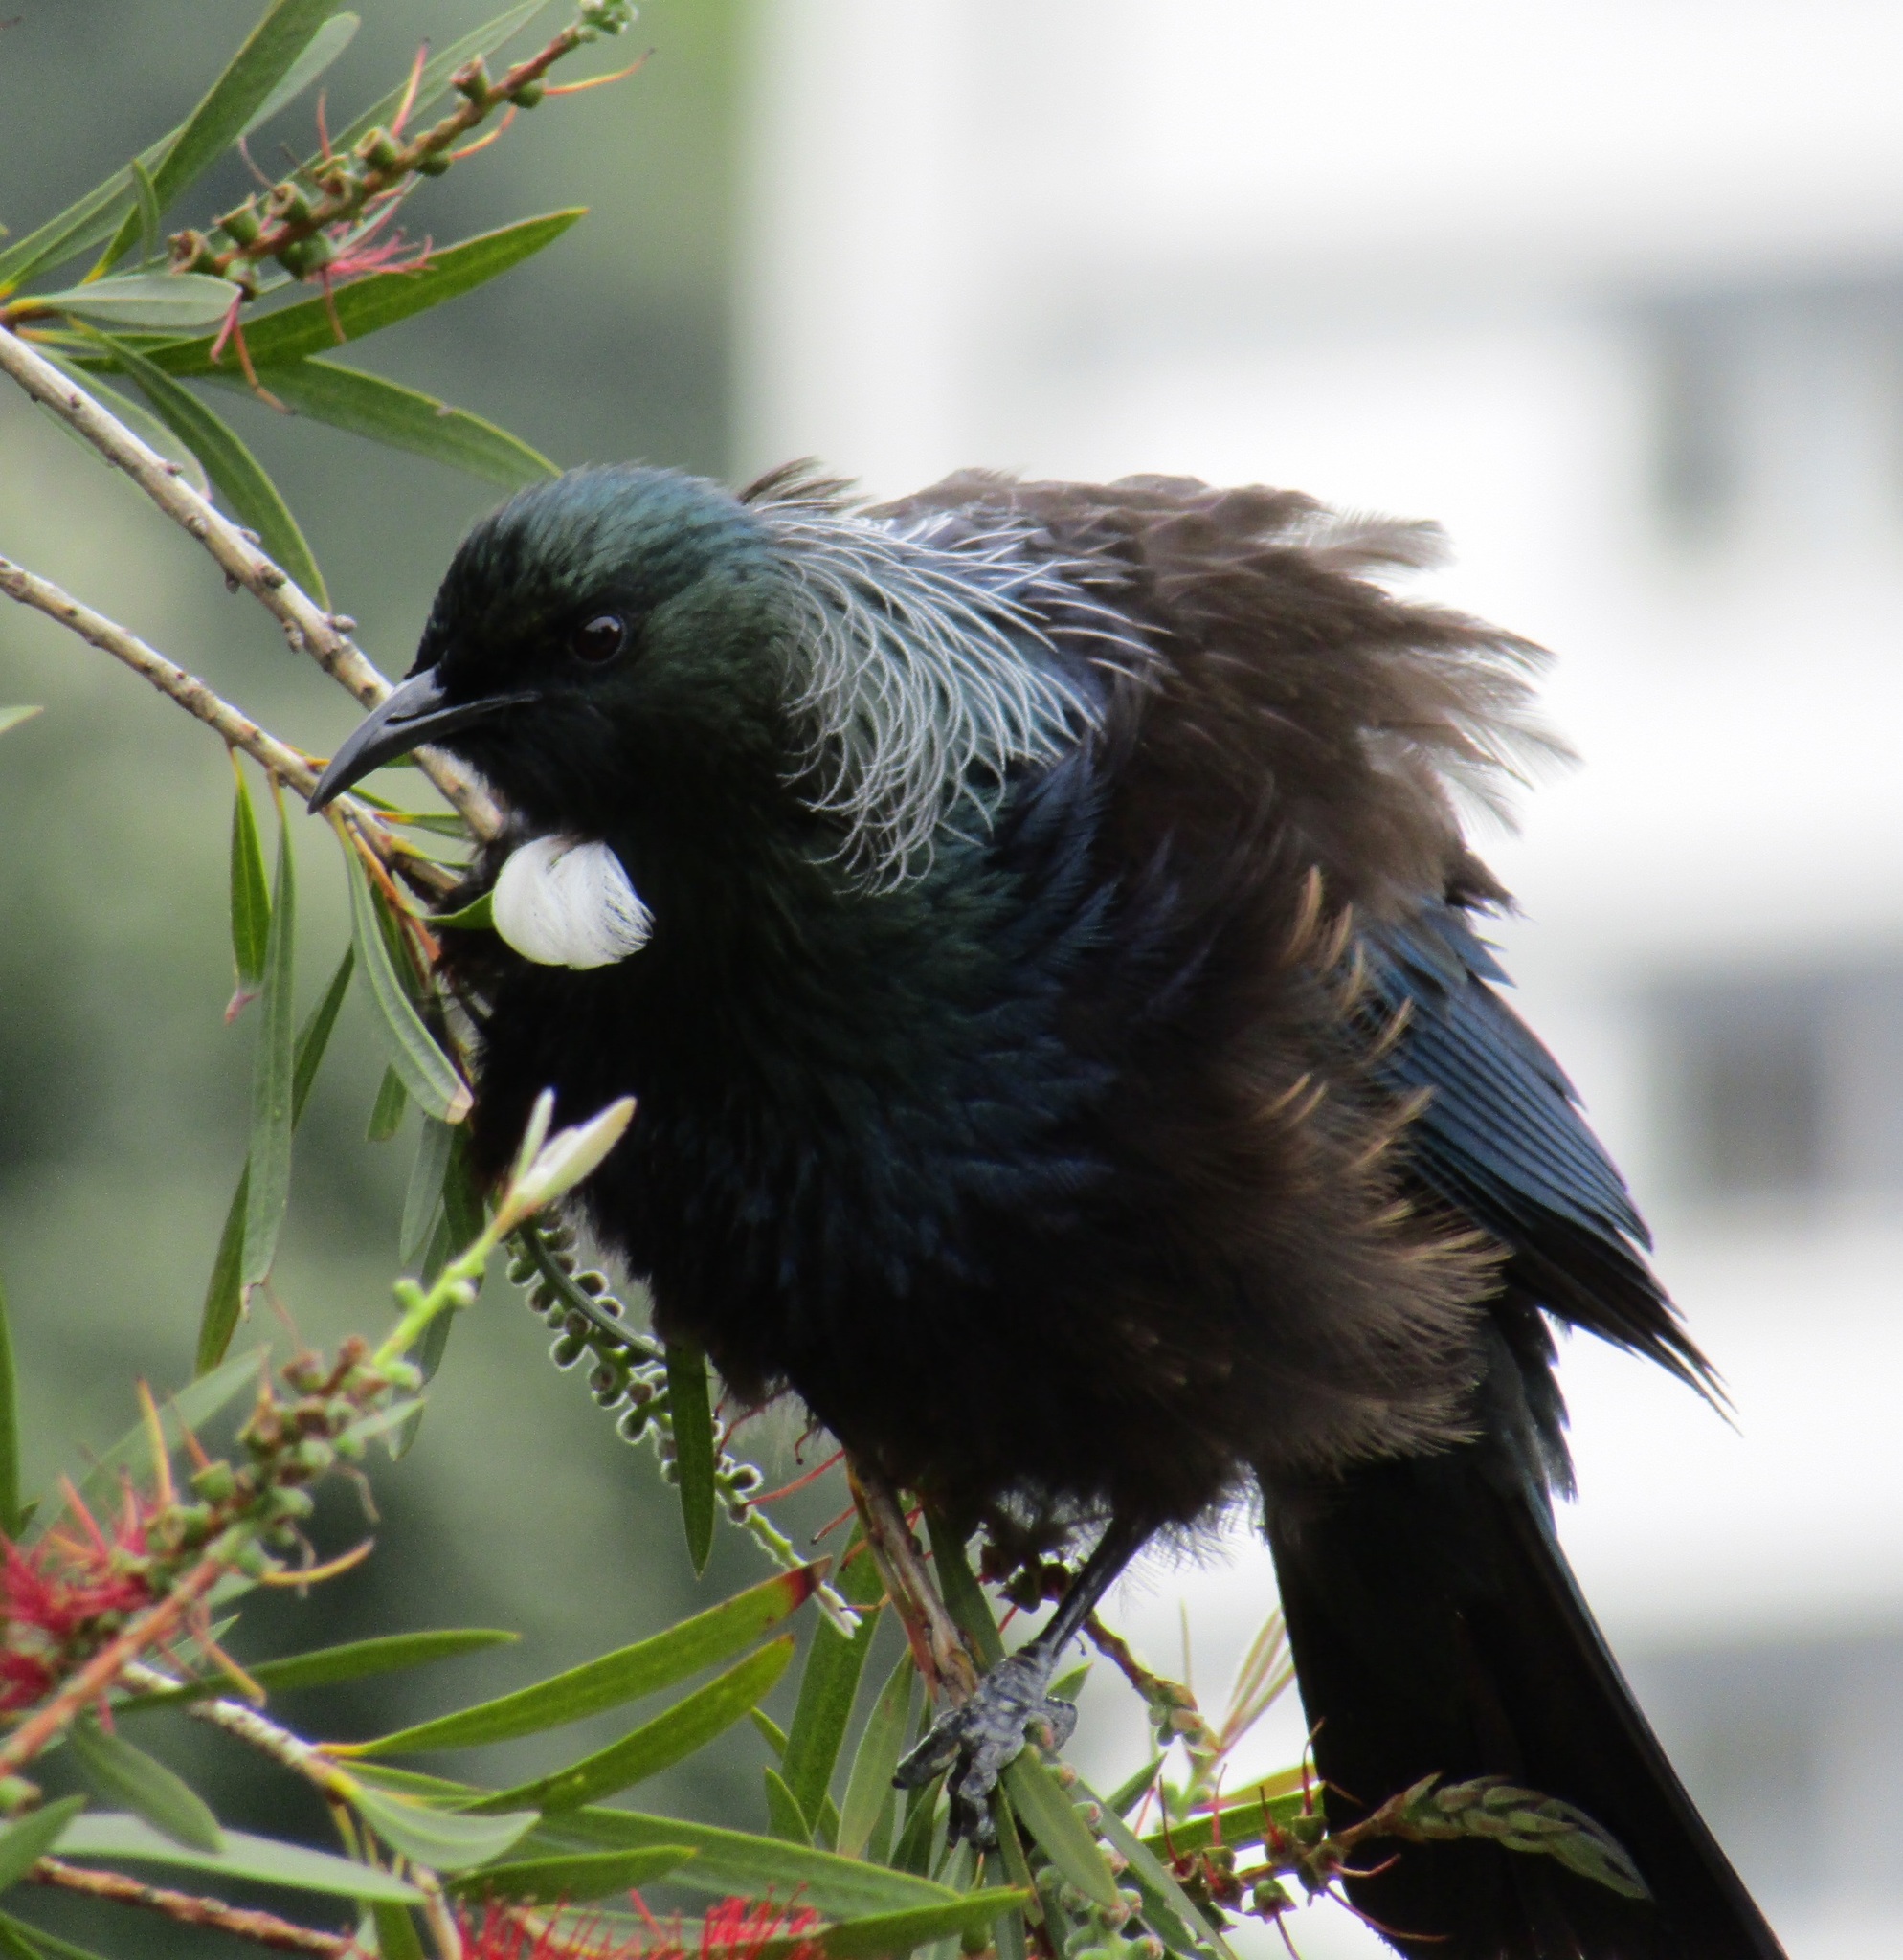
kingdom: Animalia
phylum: Chordata
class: Aves
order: Passeriformes
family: Meliphagidae
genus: Prosthemadera
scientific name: Prosthemadera novaeseelandiae
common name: Tui
